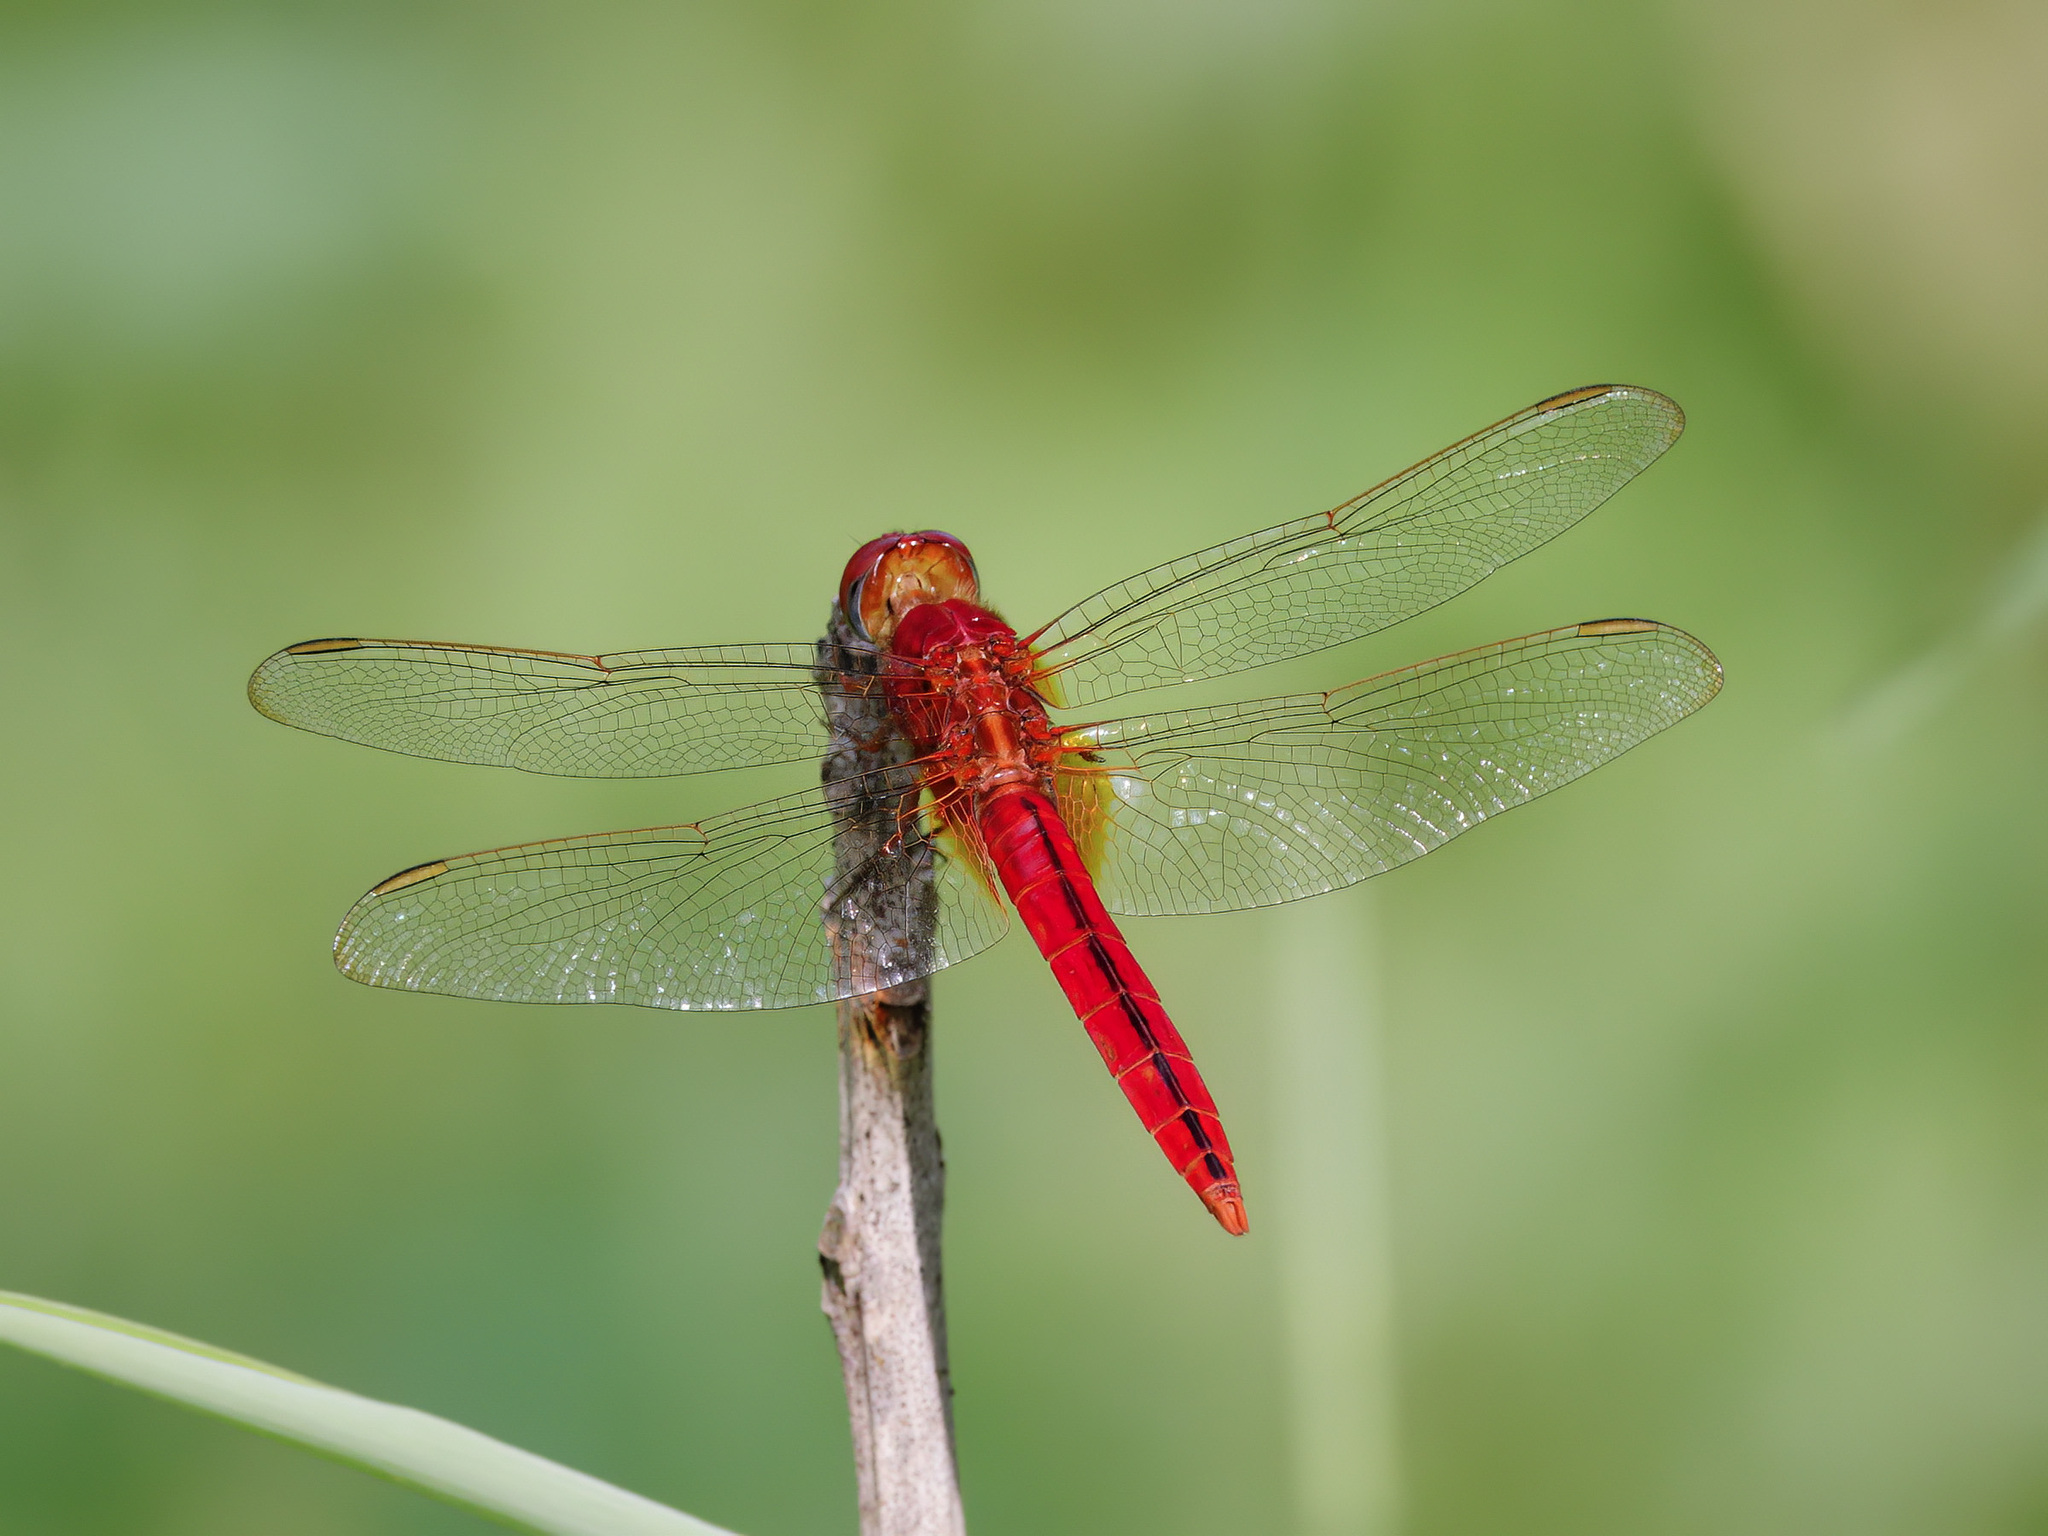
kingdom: Animalia
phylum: Arthropoda
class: Insecta
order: Odonata
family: Libellulidae
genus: Crocothemis
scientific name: Crocothemis servilia
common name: Scarlet skimmer
